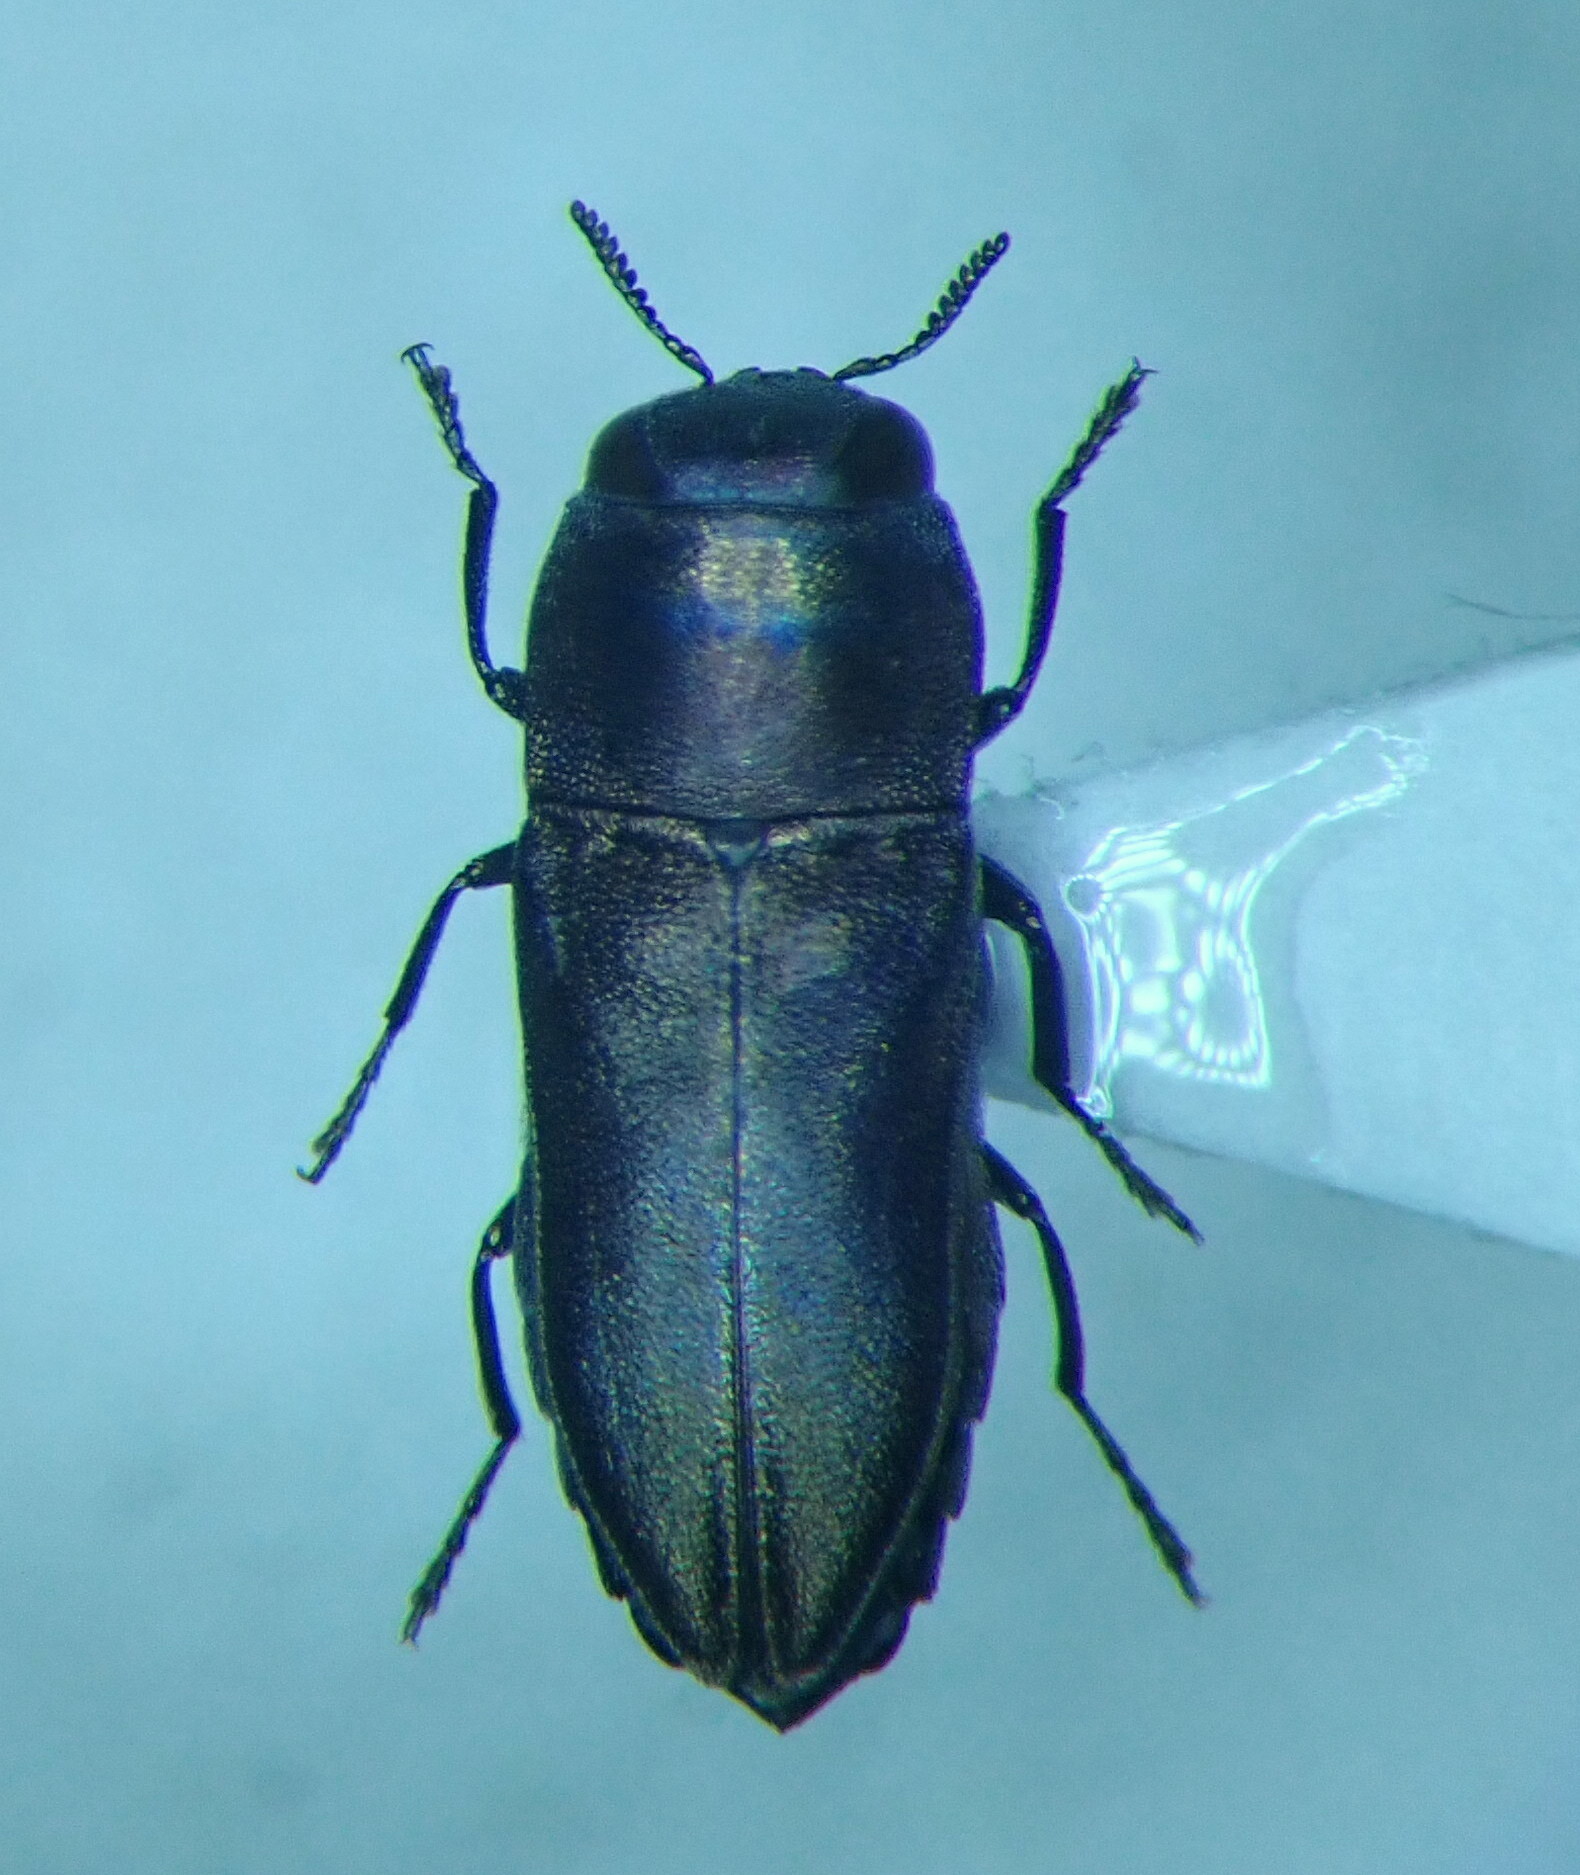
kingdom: Animalia
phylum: Arthropoda
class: Insecta
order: Coleoptera
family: Buprestidae
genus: Anthaxia
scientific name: Anthaxia umbellatarum
